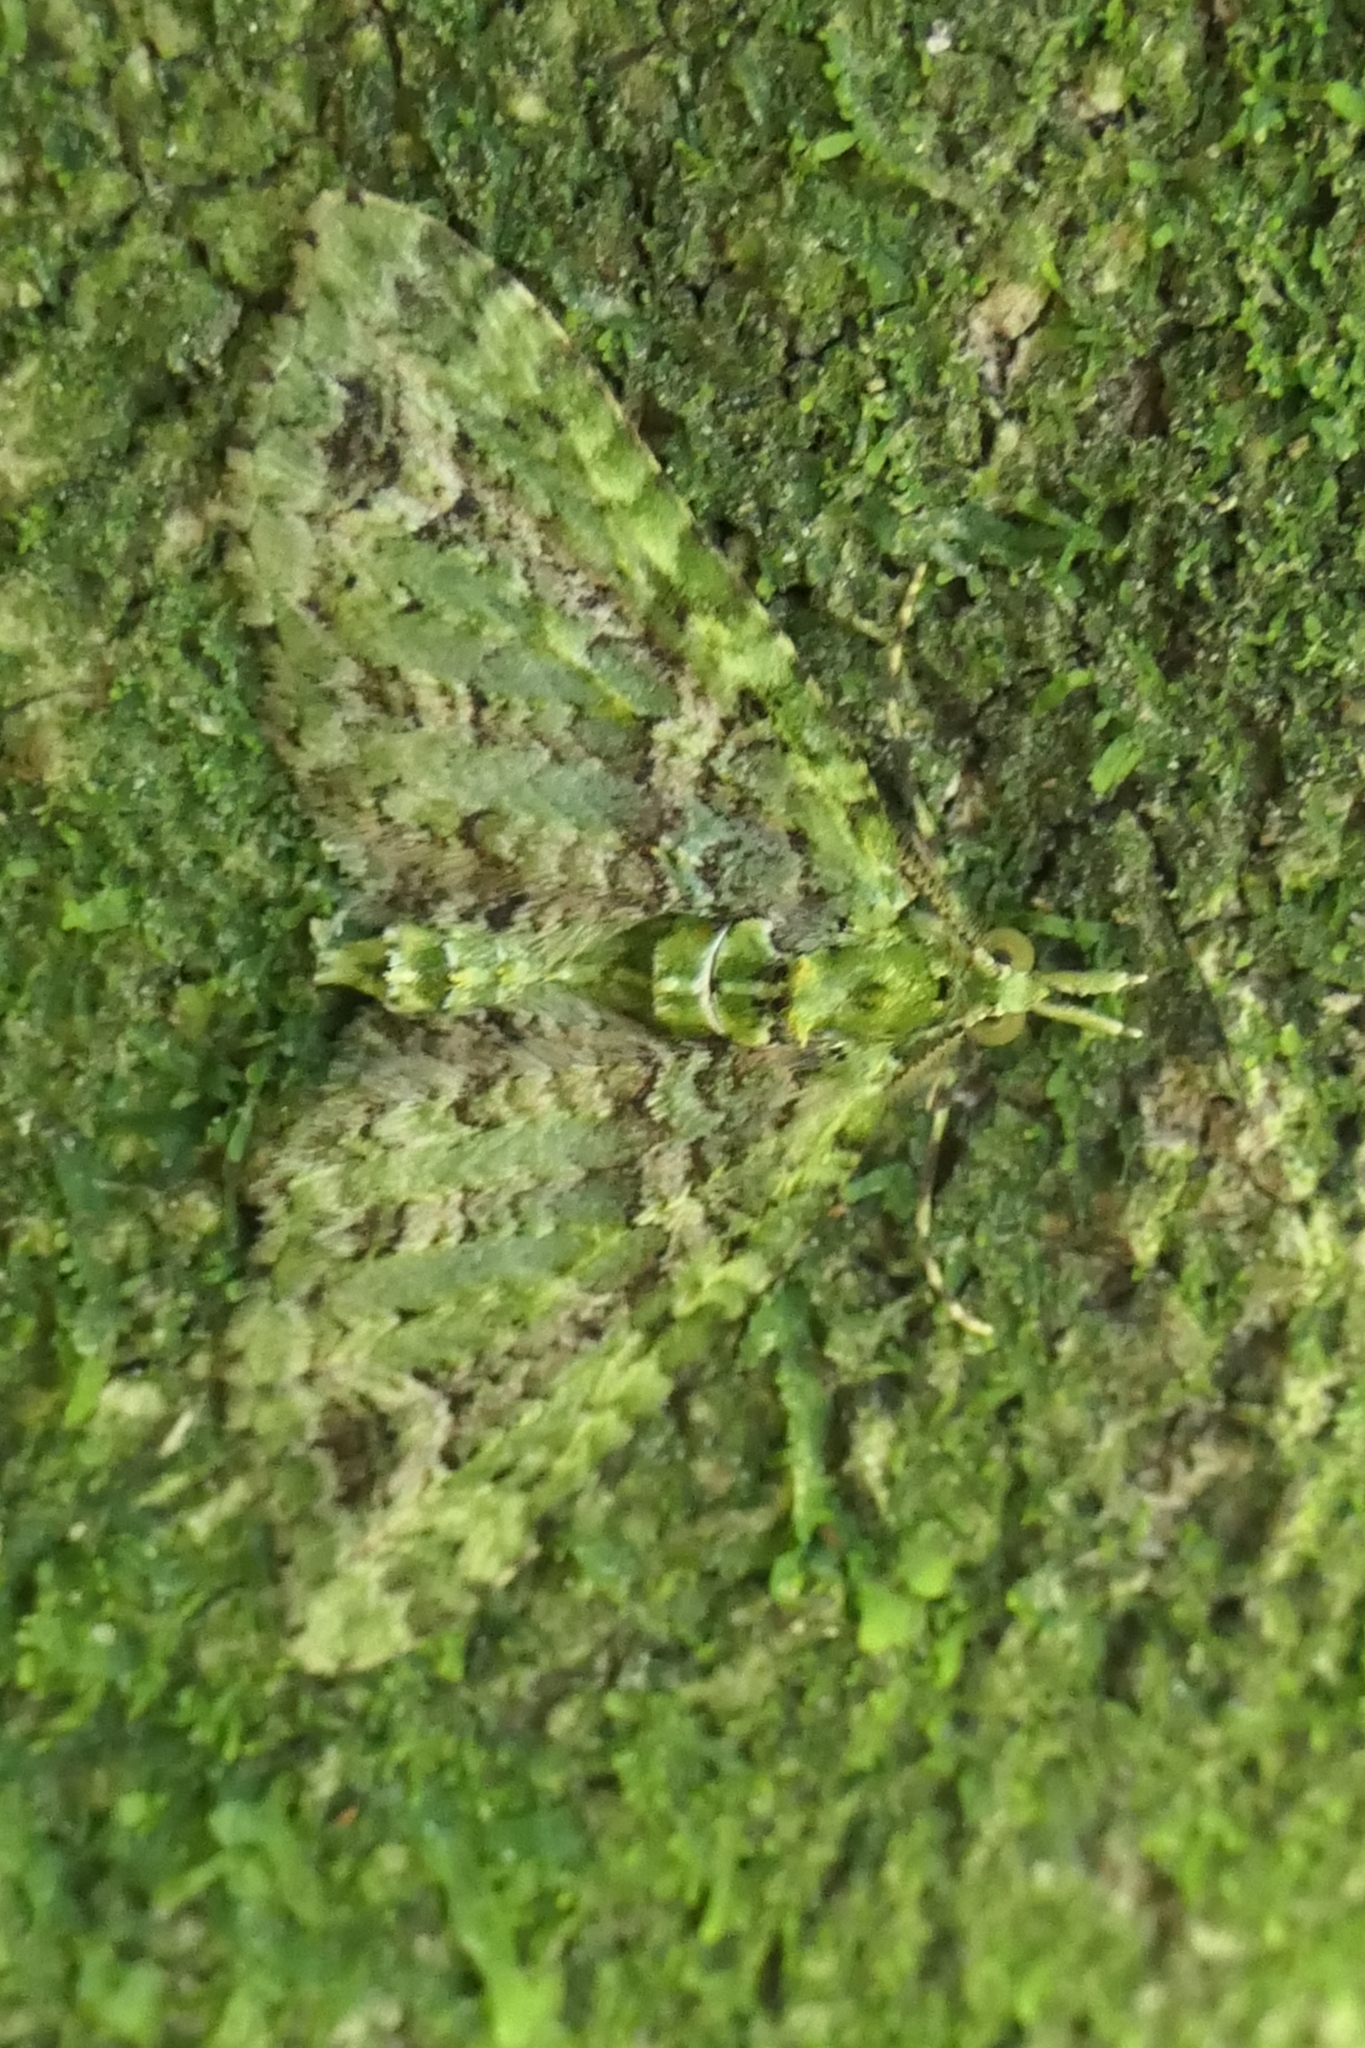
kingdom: Animalia
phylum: Arthropoda
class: Insecta
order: Lepidoptera
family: Geometridae
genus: Pasiphila
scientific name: Pasiphila muscosata
